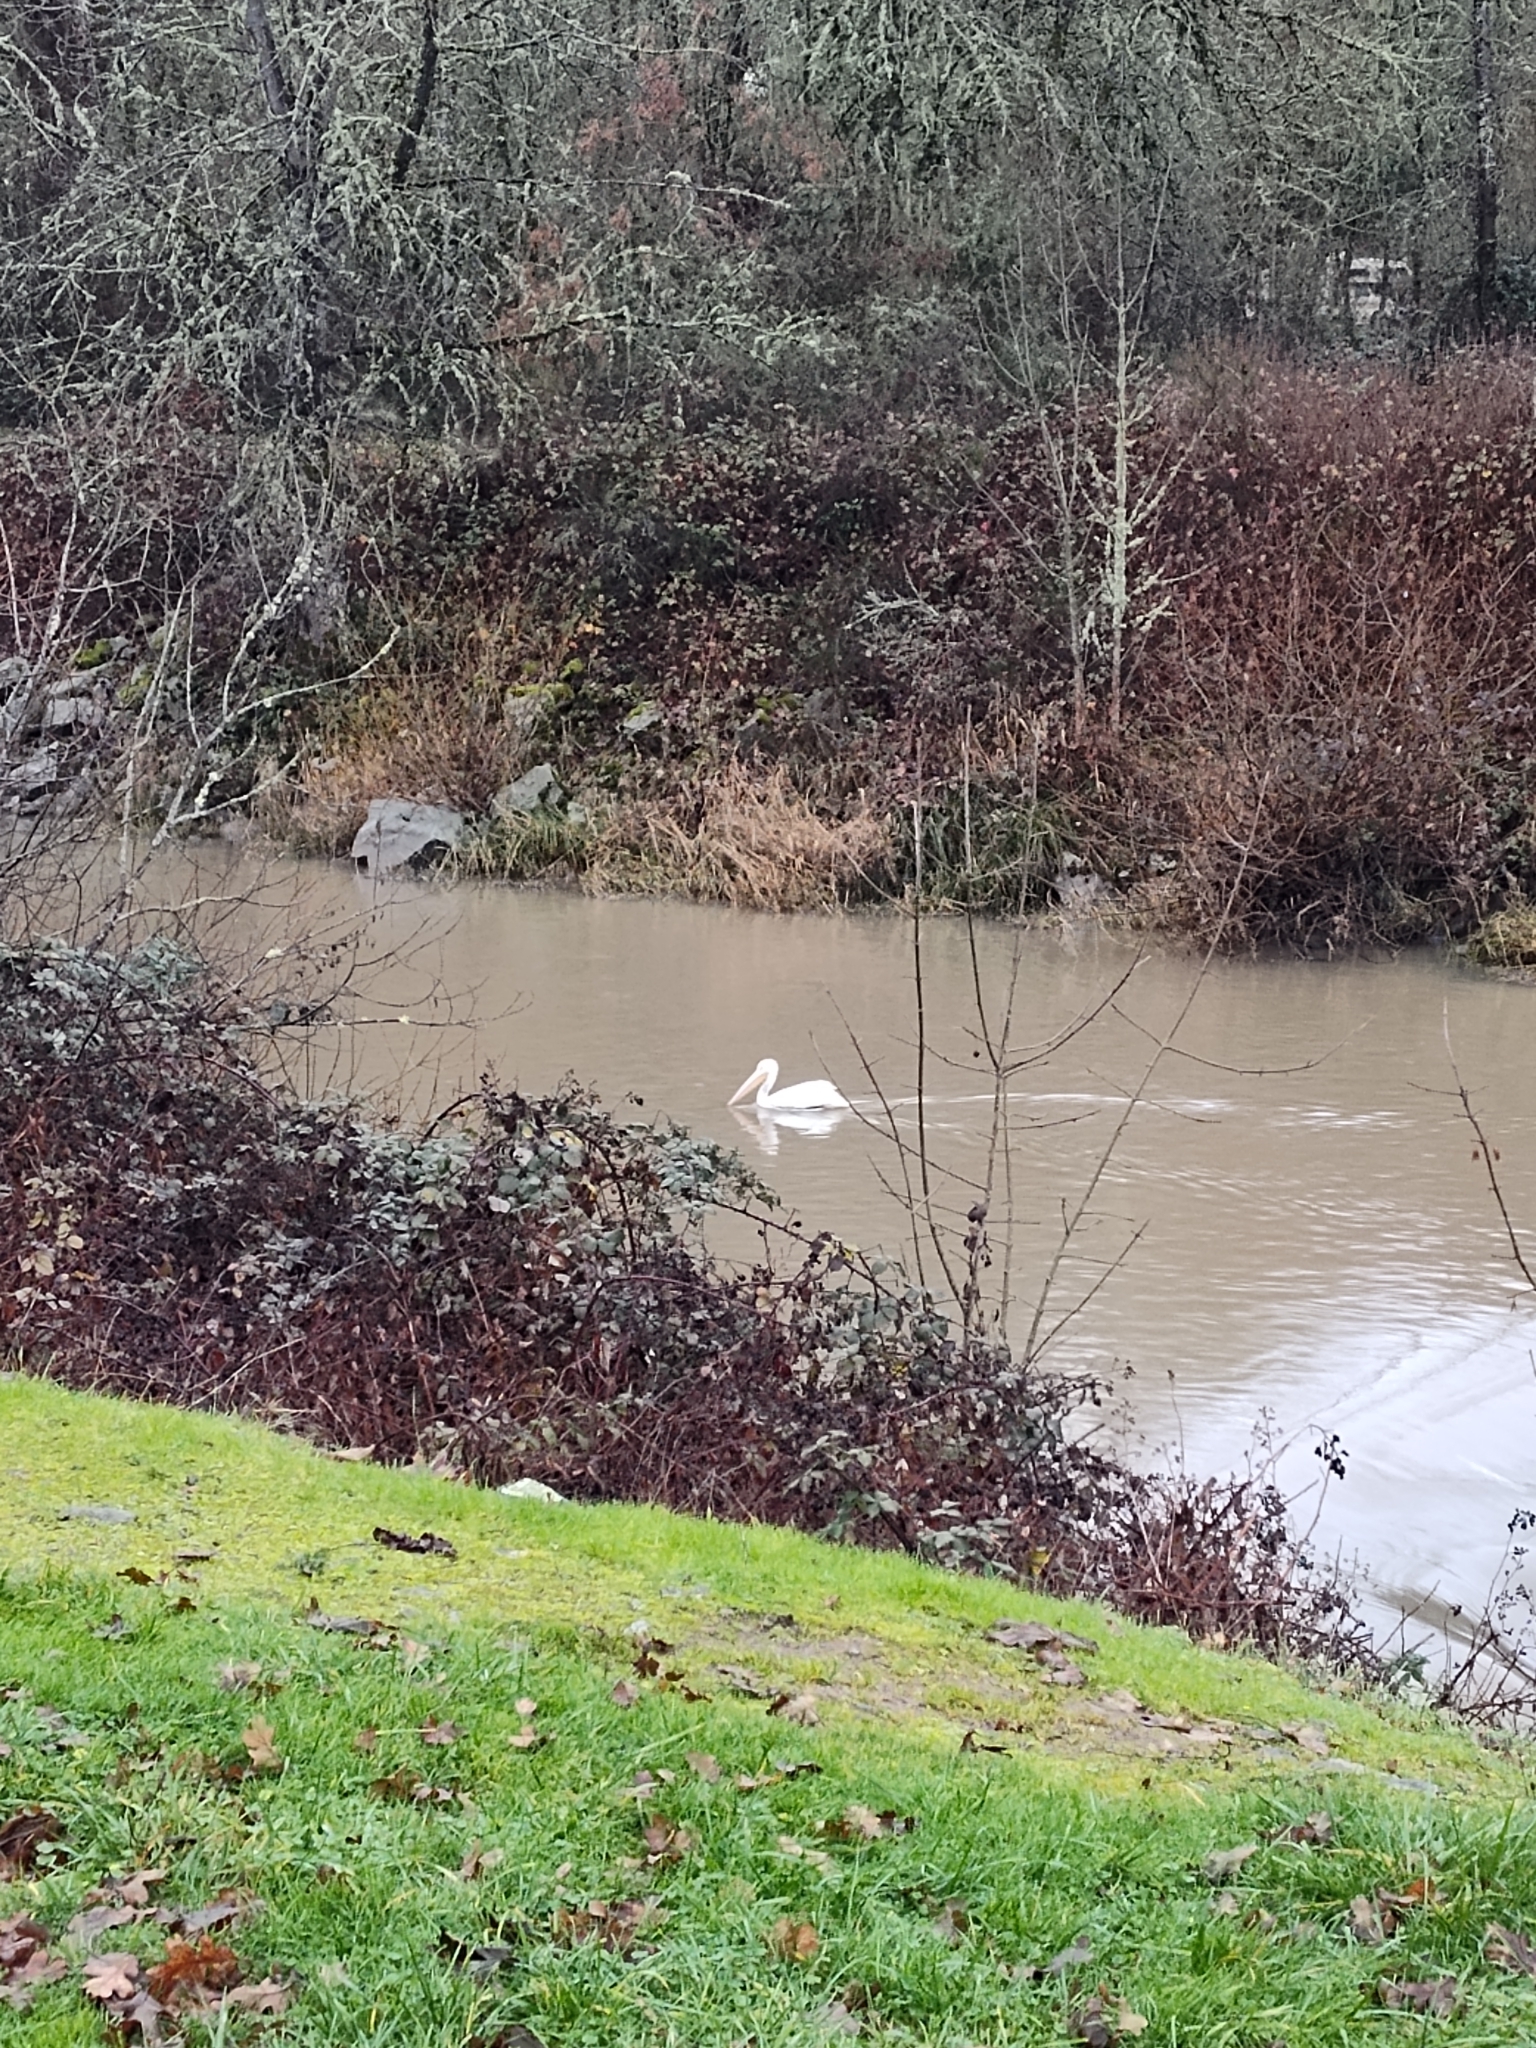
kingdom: Animalia
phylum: Chordata
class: Aves
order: Pelecaniformes
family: Pelecanidae
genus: Pelecanus
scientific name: Pelecanus erythrorhynchos
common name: American white pelican
